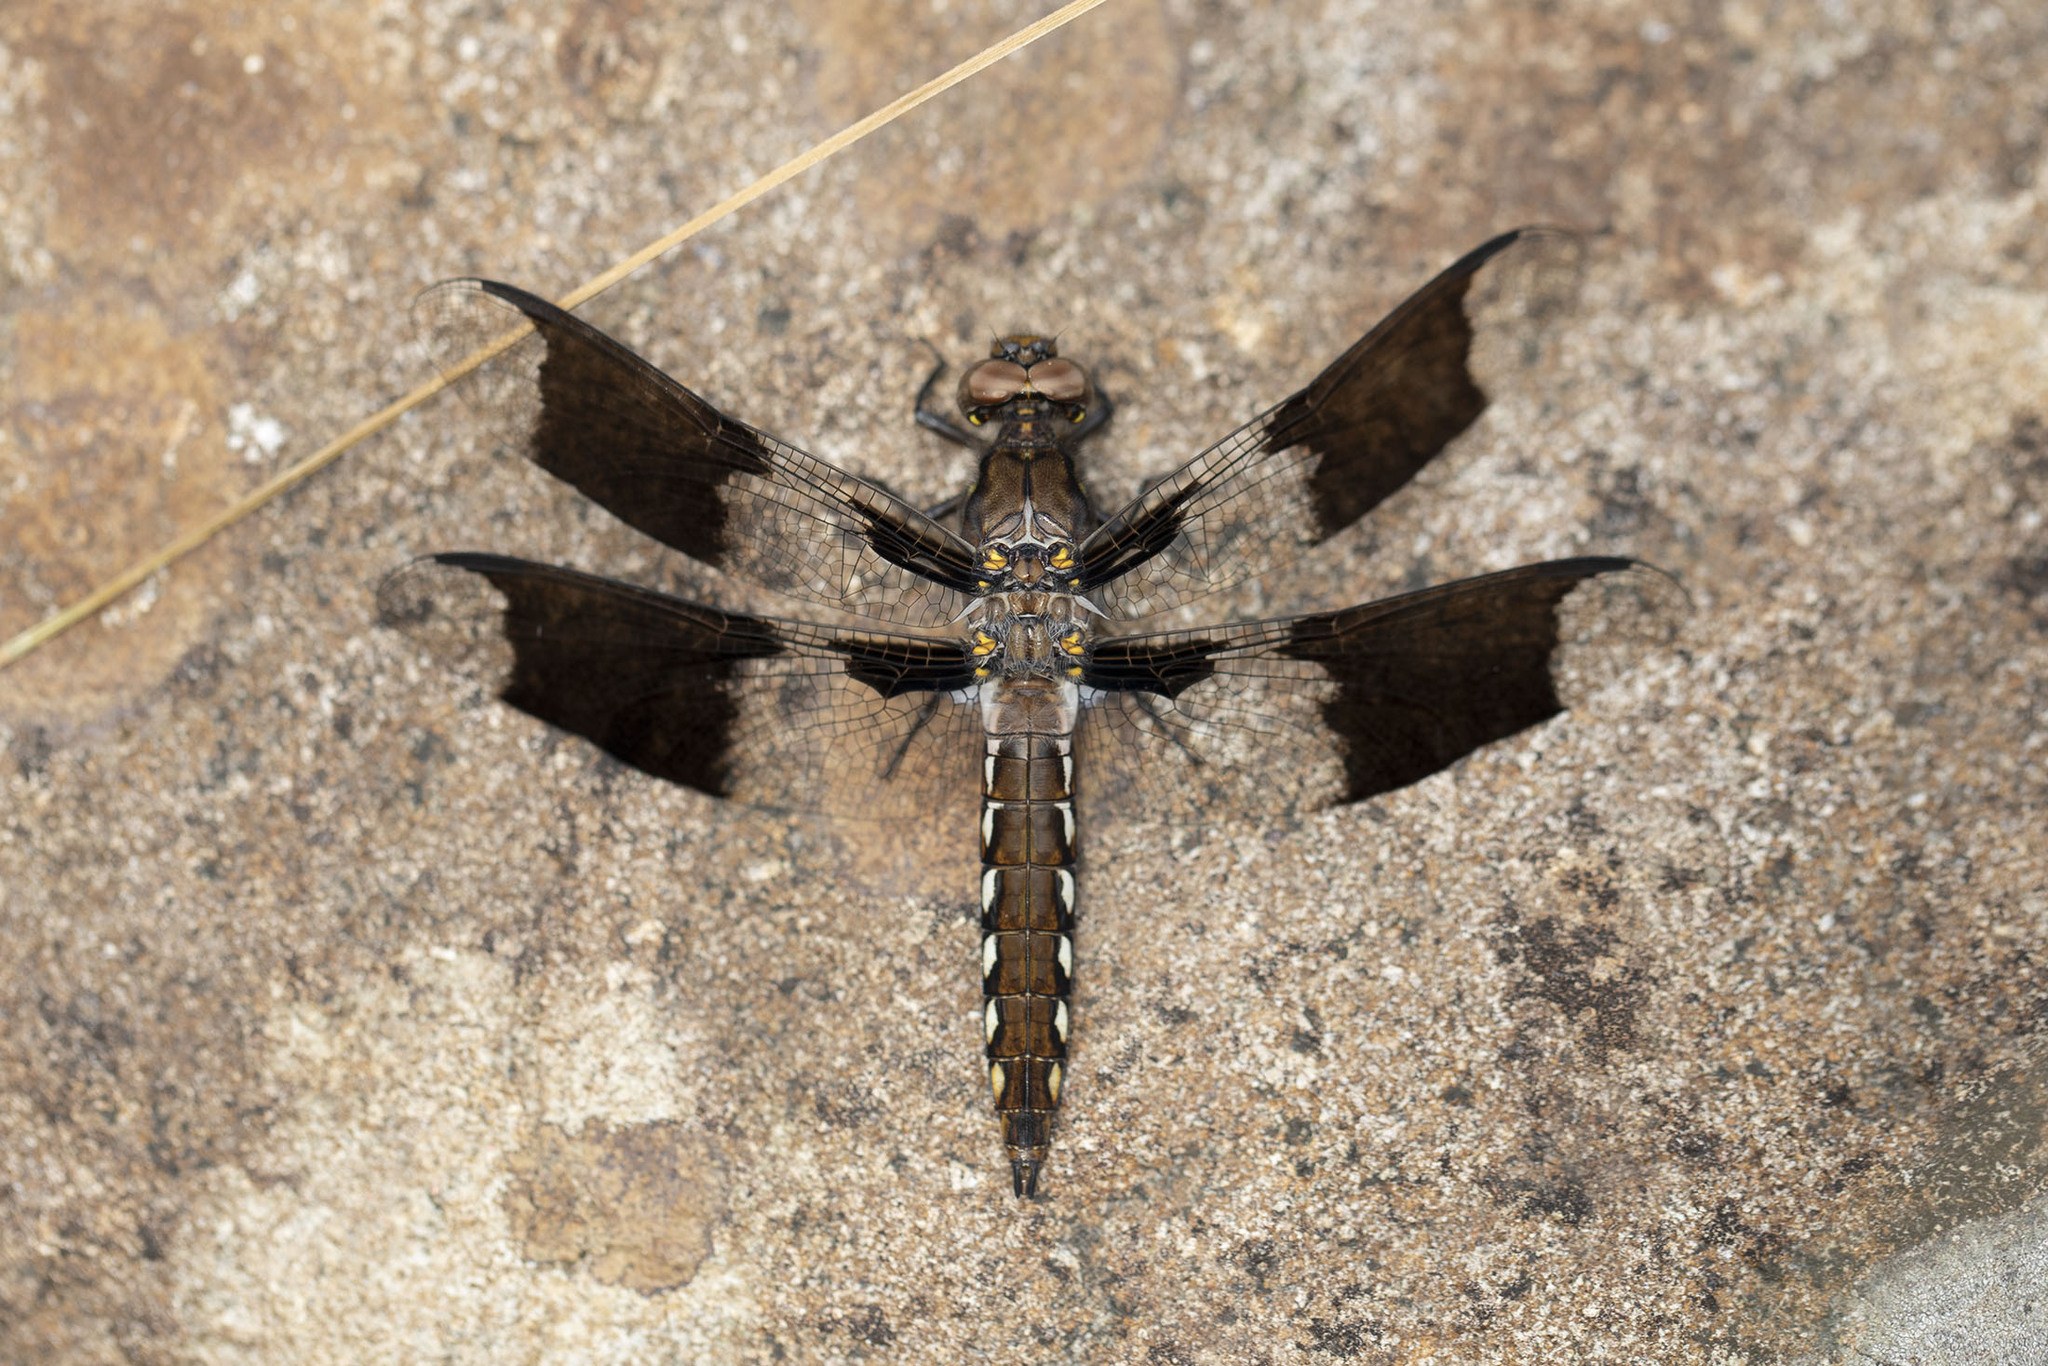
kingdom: Animalia
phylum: Arthropoda
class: Insecta
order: Odonata
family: Libellulidae
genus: Plathemis
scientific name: Plathemis lydia
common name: Common whitetail
